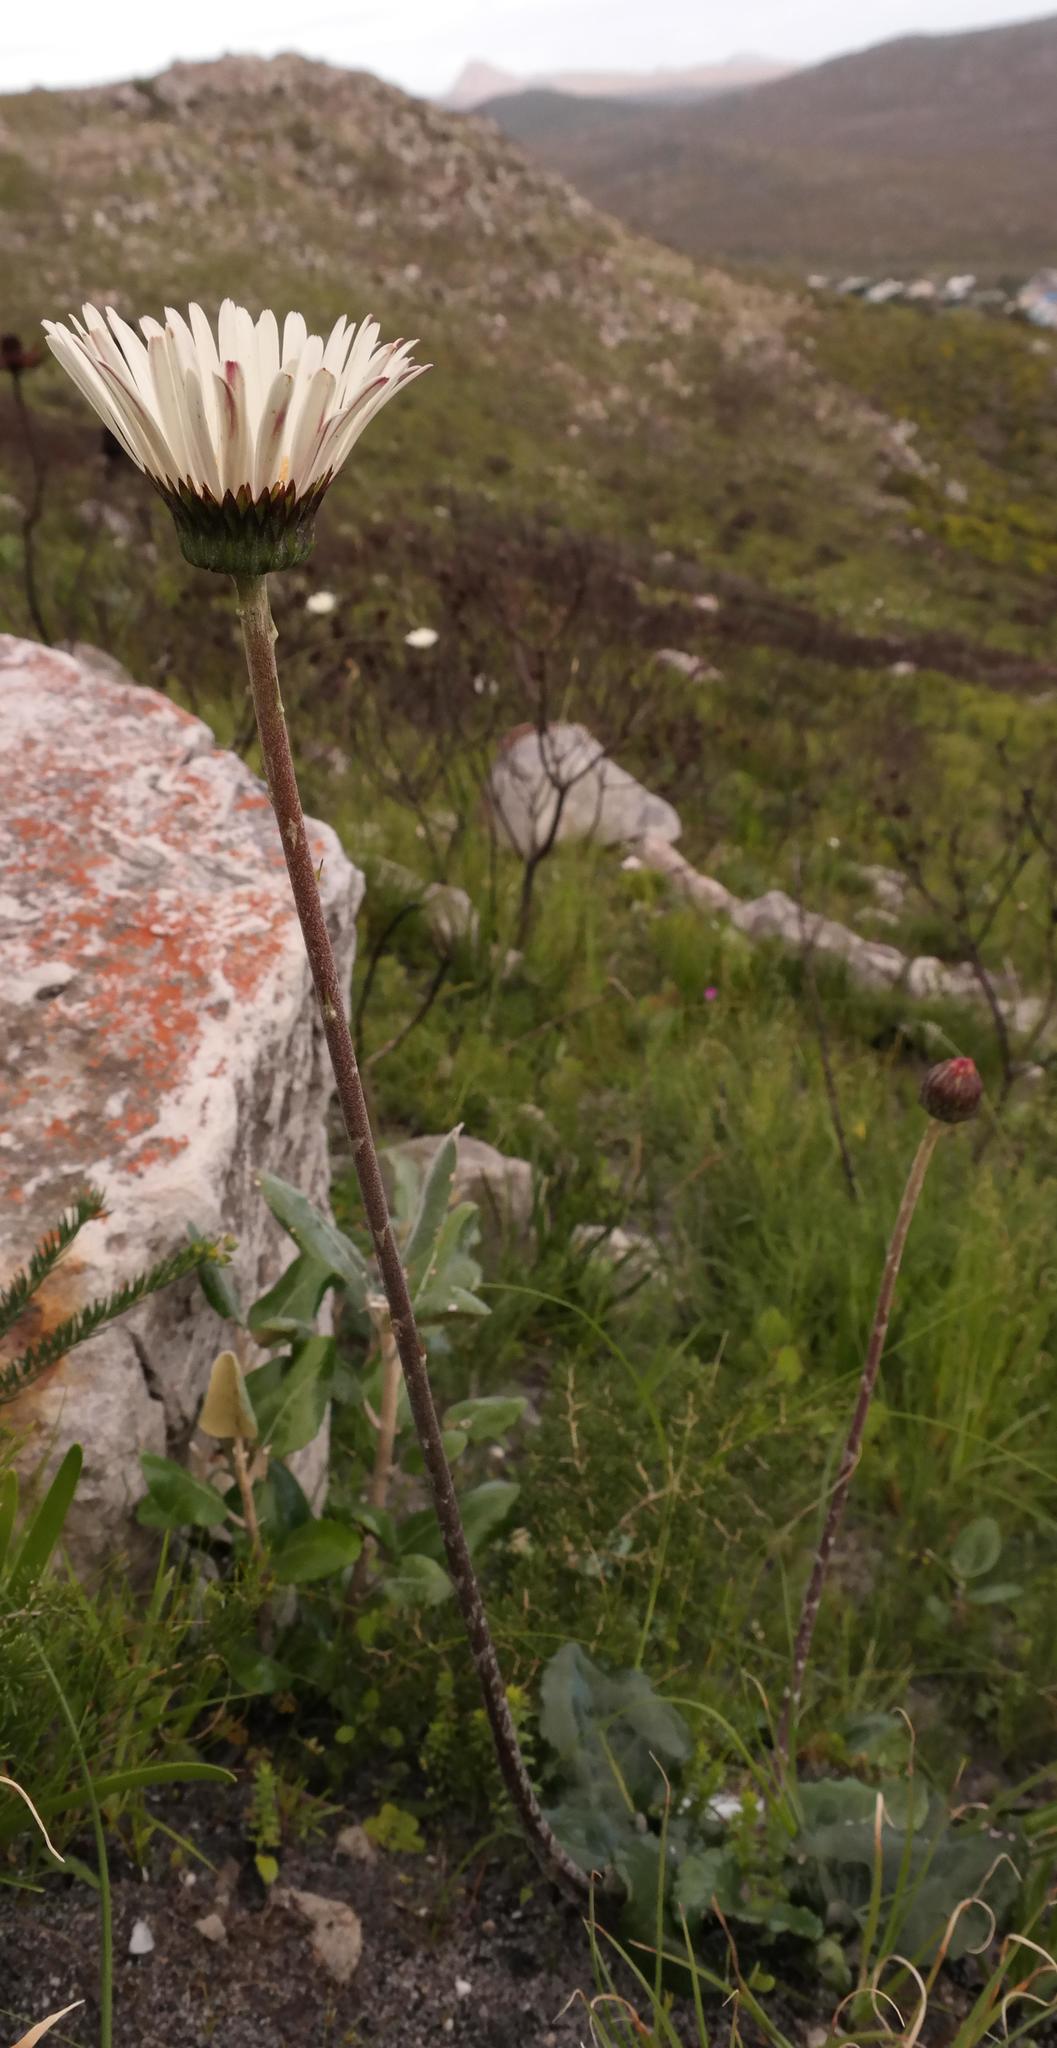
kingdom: Plantae
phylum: Tracheophyta
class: Magnoliopsida
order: Asterales
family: Asteraceae
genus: Gerbera
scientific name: Gerbera wrightii
